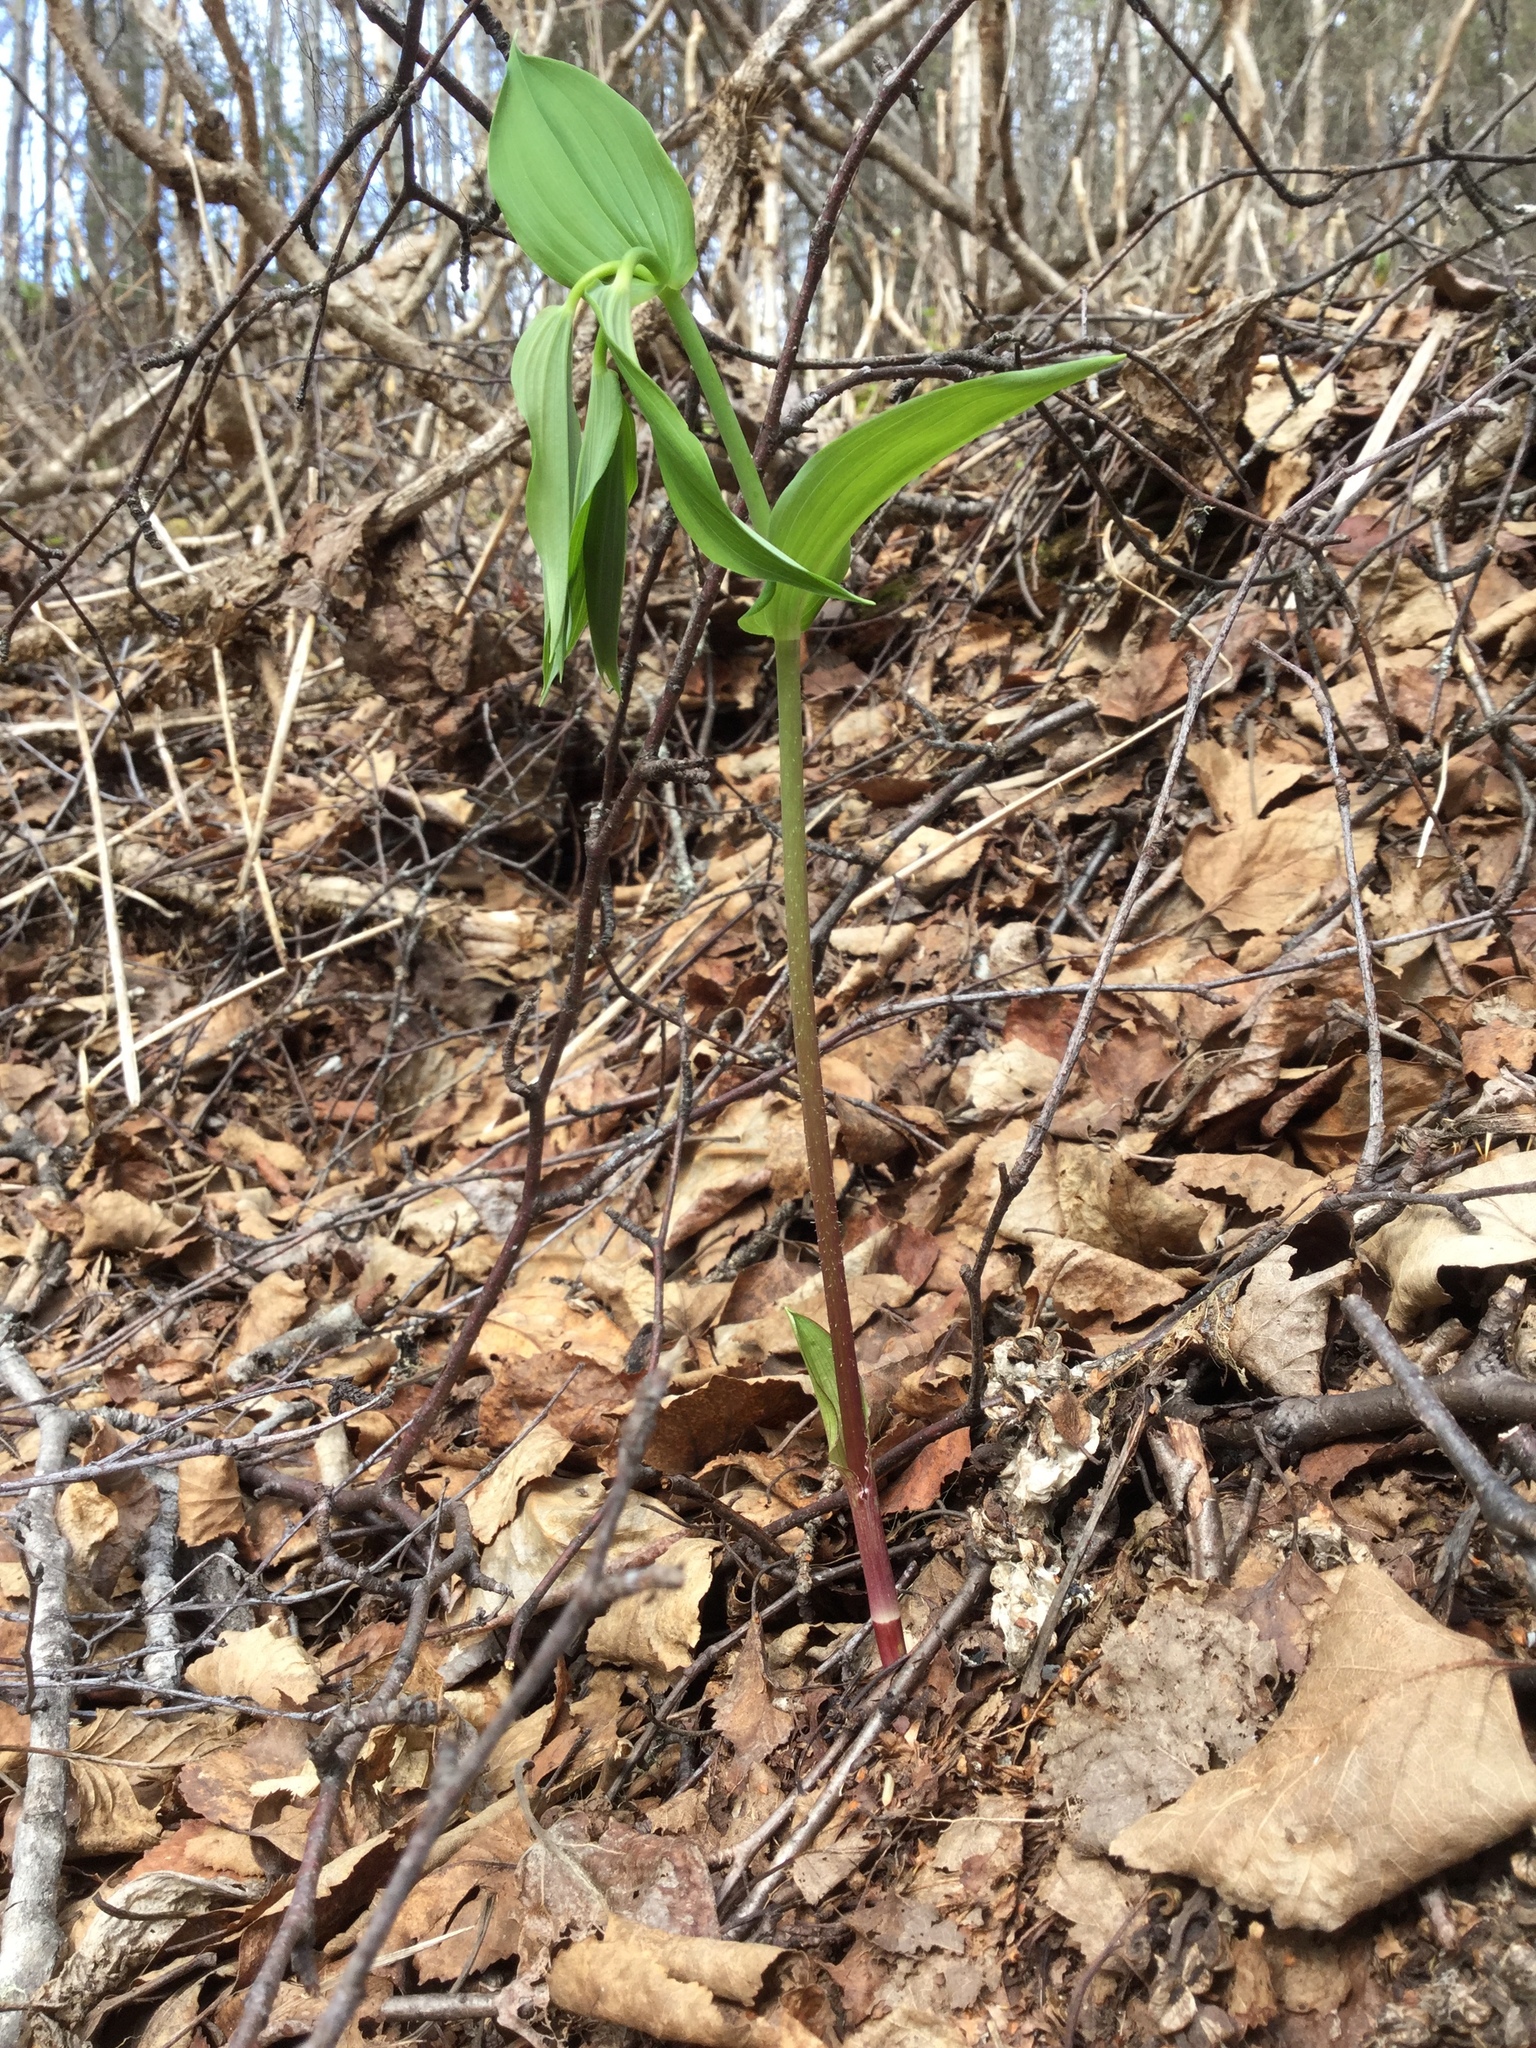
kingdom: Plantae
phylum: Tracheophyta
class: Liliopsida
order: Liliales
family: Liliaceae
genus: Streptopus
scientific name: Streptopus amplexifolius
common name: Clasp twisted stalk
